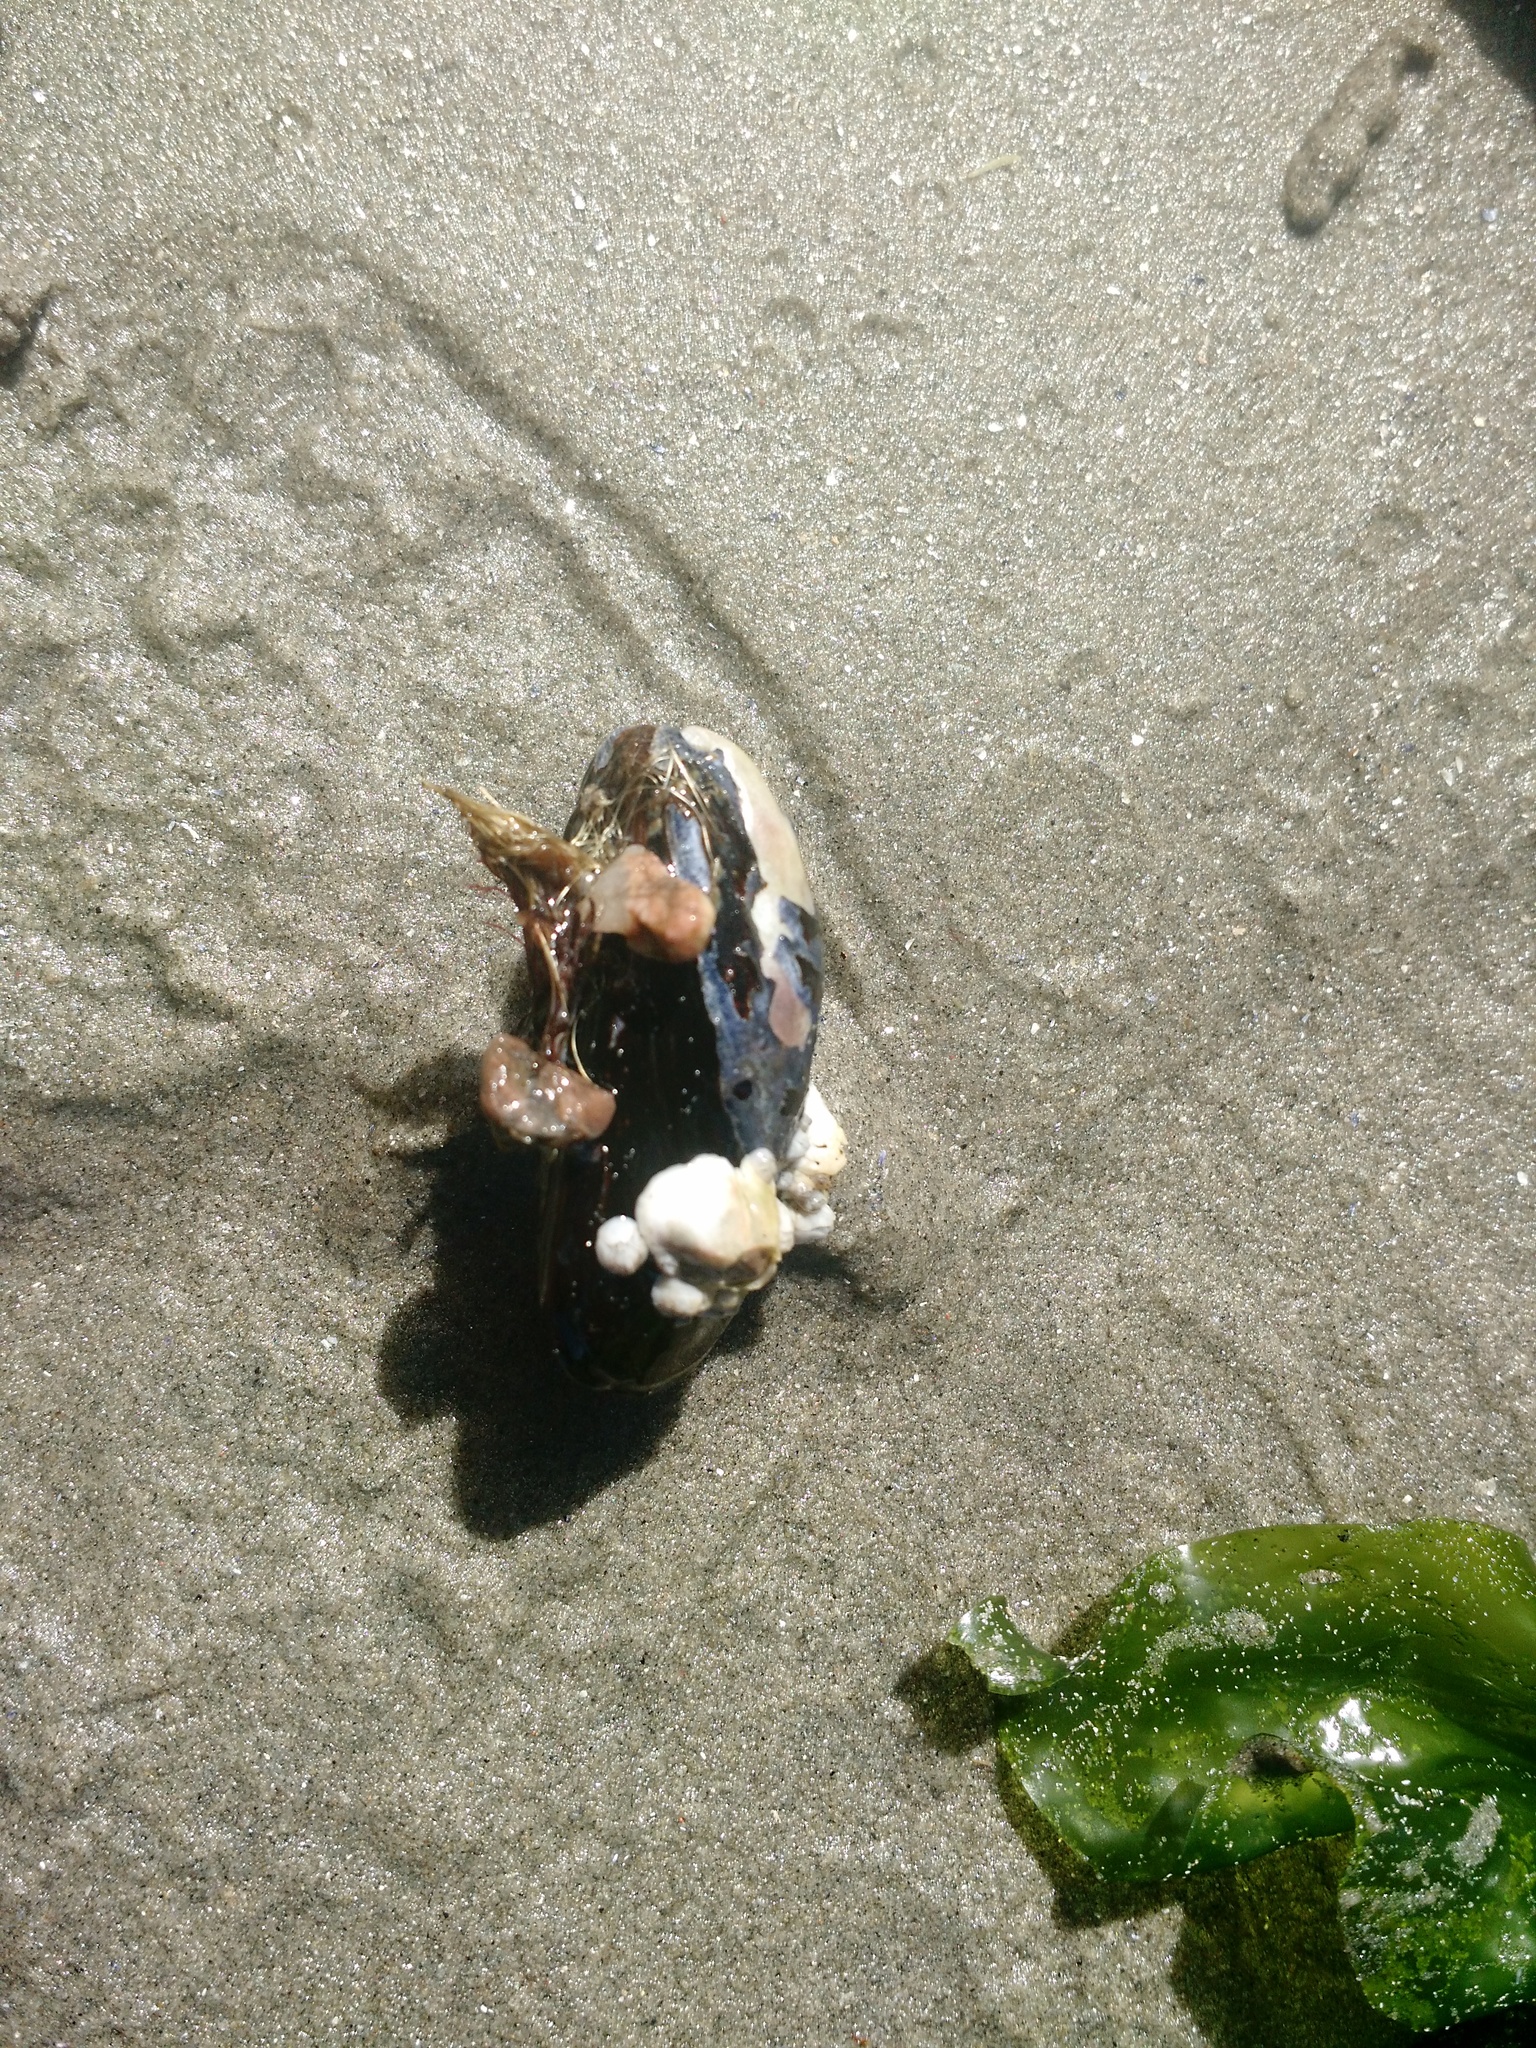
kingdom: Animalia
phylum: Mollusca
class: Bivalvia
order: Mytilida
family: Mytilidae
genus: Mytilus
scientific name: Mytilus edulis
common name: Blue mussel
